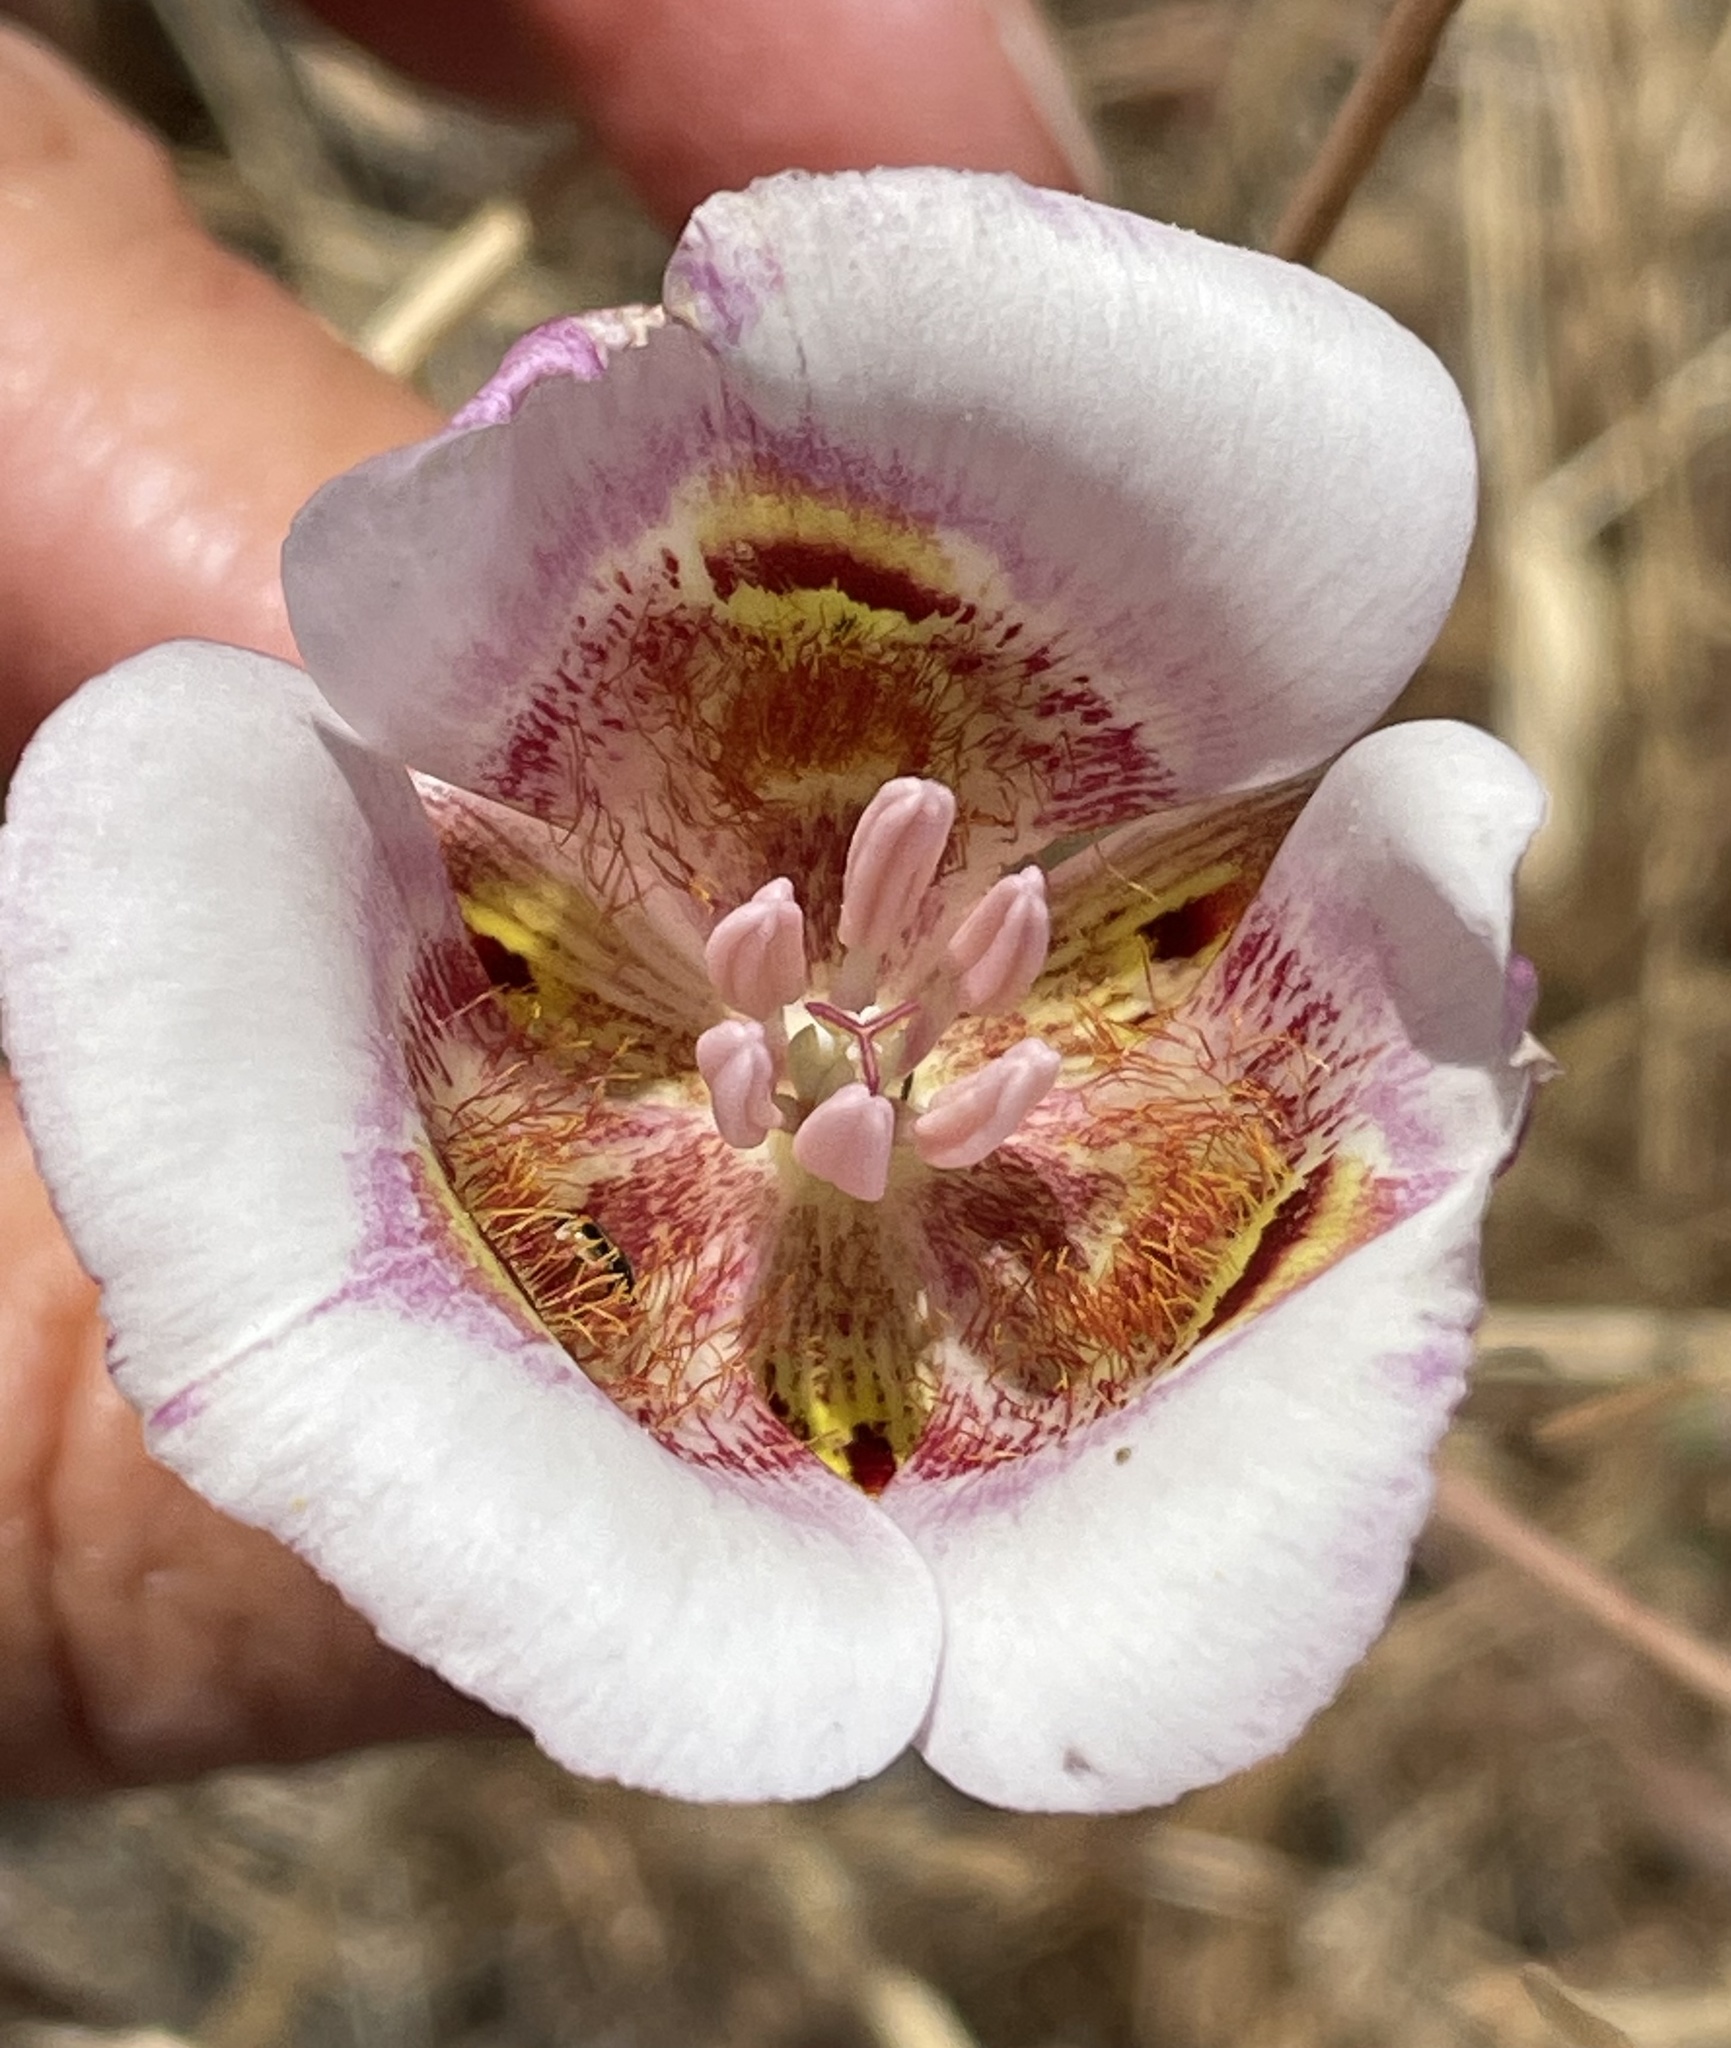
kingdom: Plantae
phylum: Tracheophyta
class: Liliopsida
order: Liliales
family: Liliaceae
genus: Calochortus
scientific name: Calochortus argillosus
